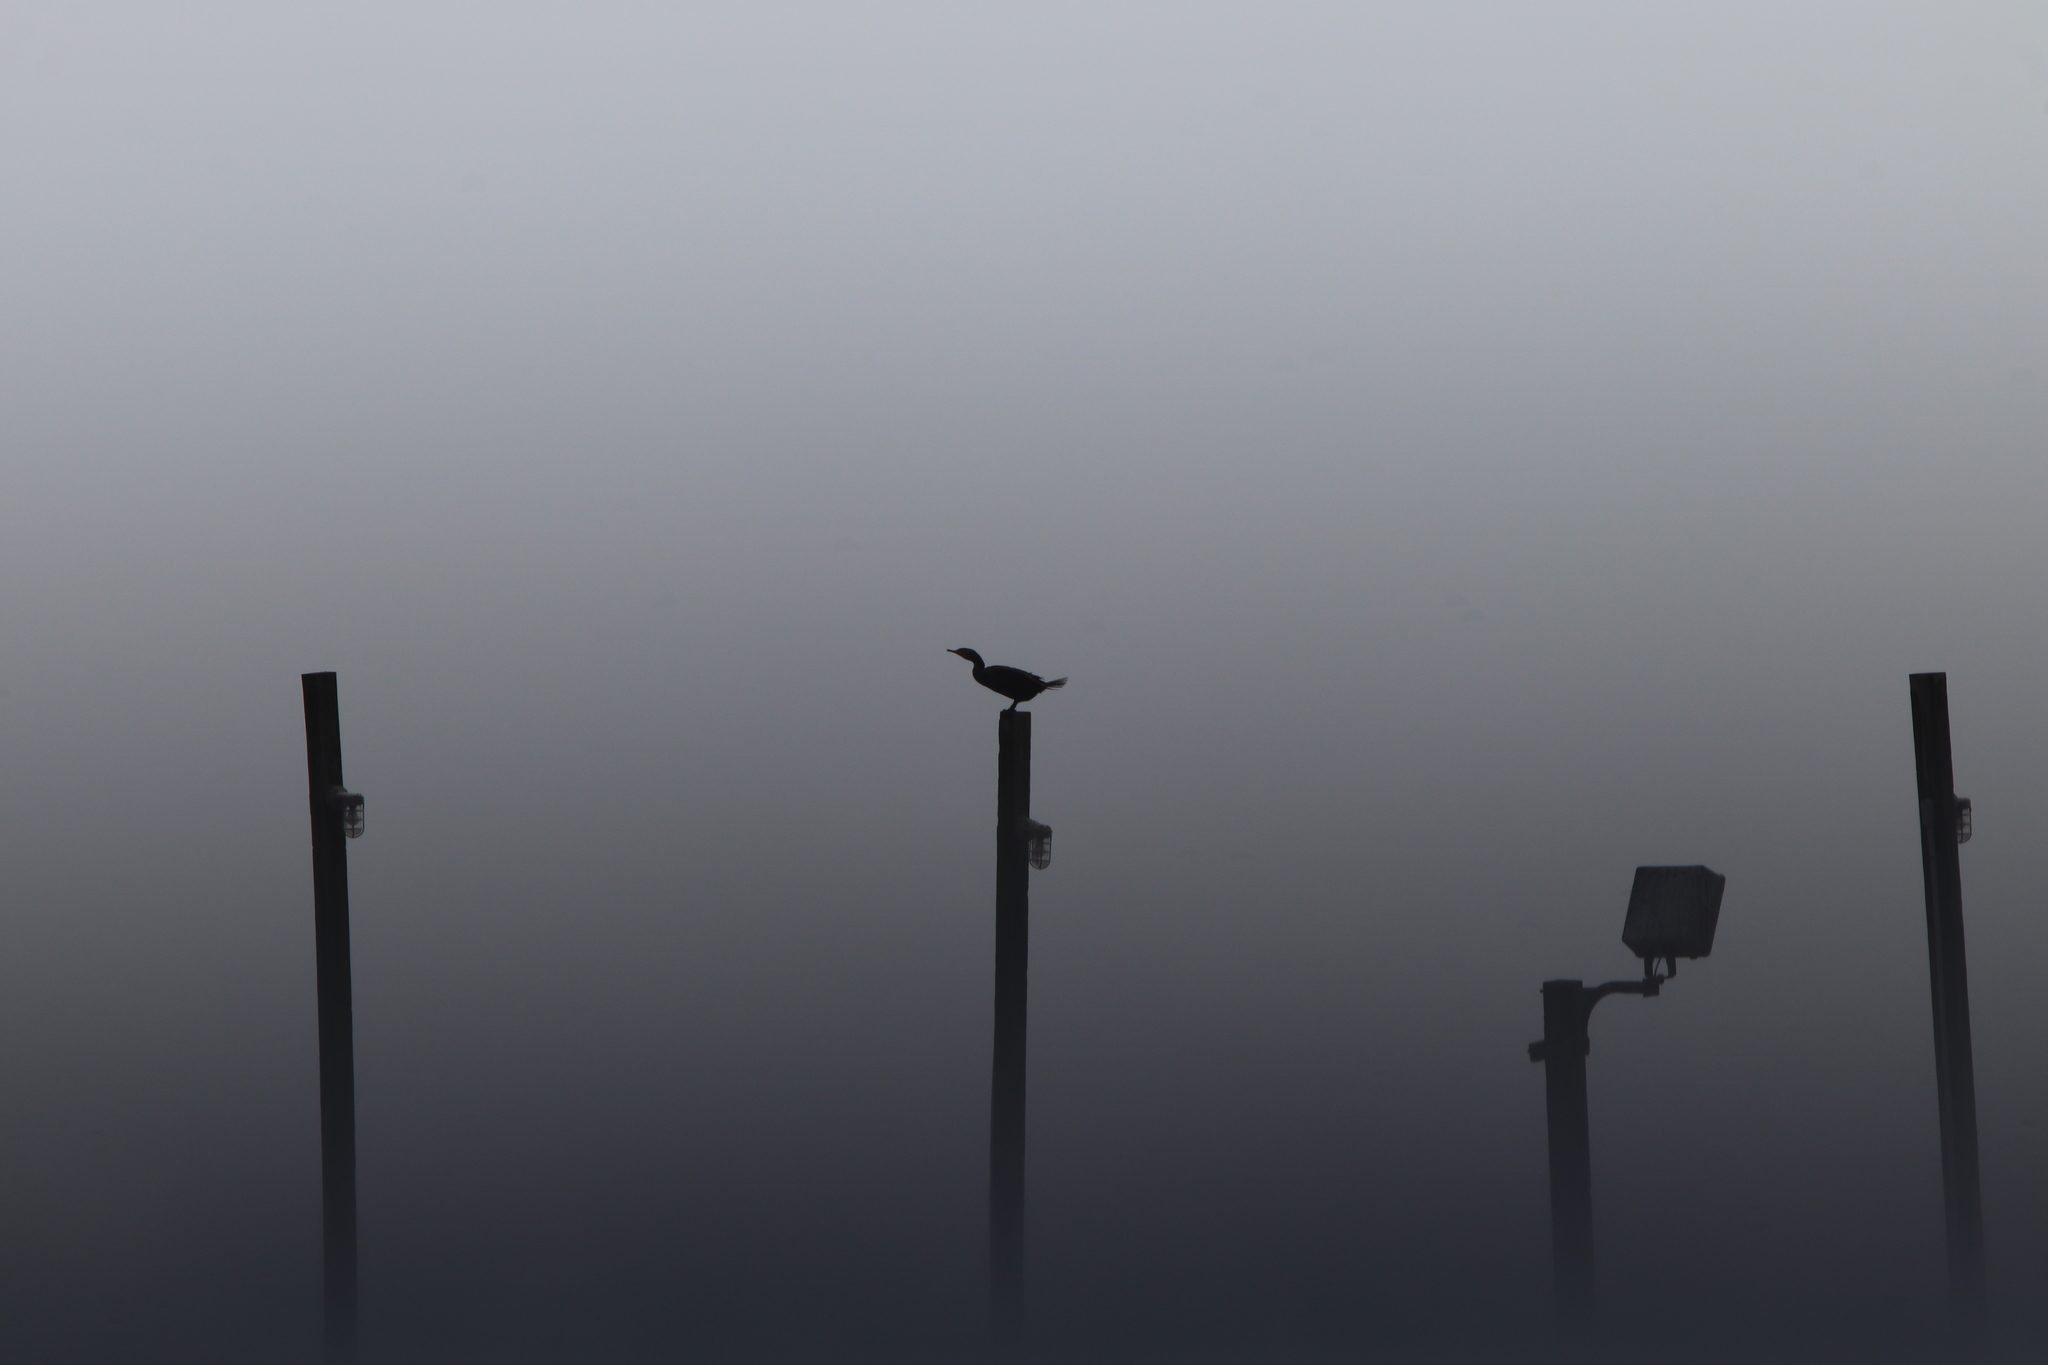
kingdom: Animalia
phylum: Chordata
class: Aves
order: Suliformes
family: Phalacrocoracidae
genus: Phalacrocorax
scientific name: Phalacrocorax auritus
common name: Double-crested cormorant
